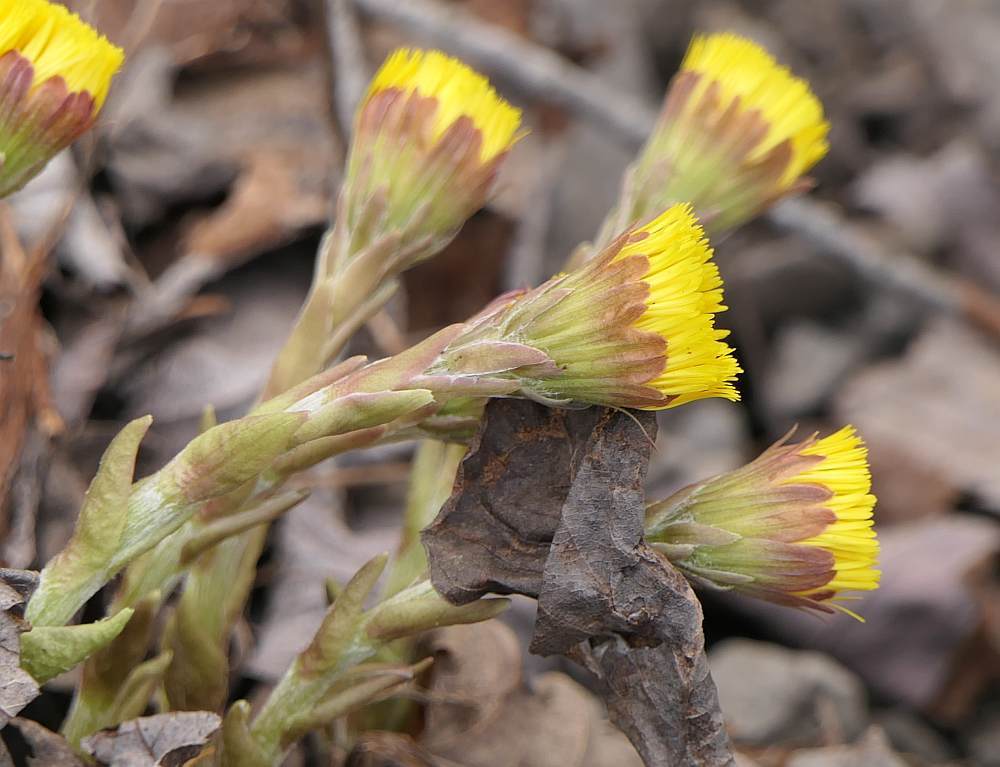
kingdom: Plantae
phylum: Tracheophyta
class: Magnoliopsida
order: Asterales
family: Asteraceae
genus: Tussilago
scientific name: Tussilago farfara
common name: Coltsfoot
